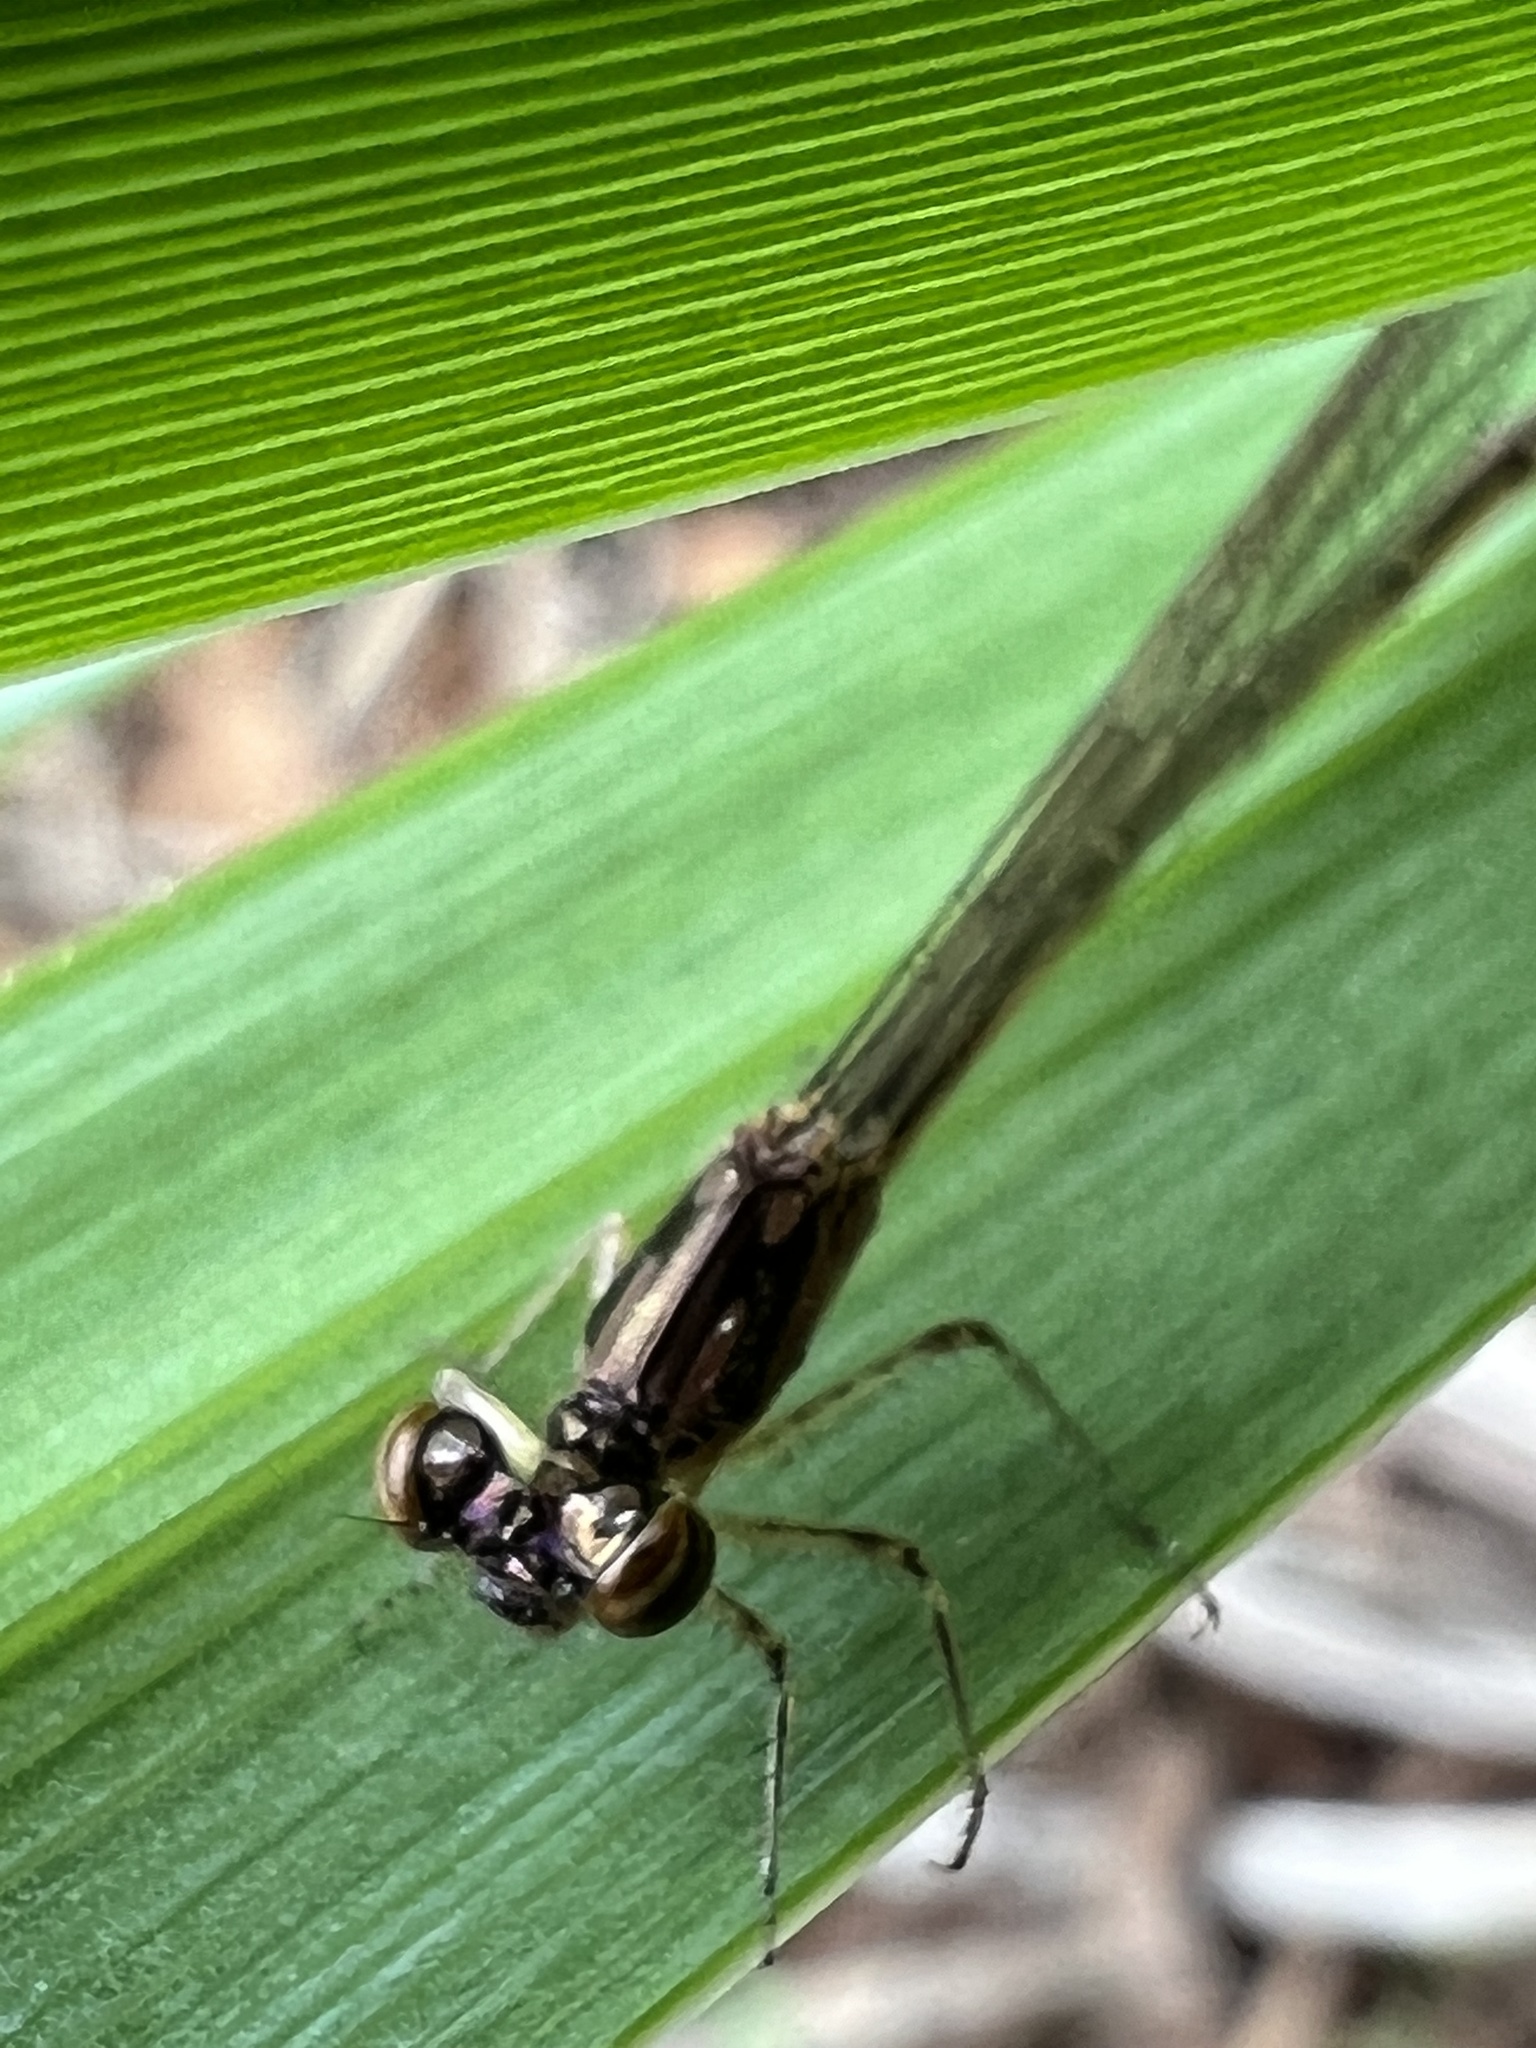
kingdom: Animalia
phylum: Arthropoda
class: Insecta
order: Odonata
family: Coenagrionidae
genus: Ischnura
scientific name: Ischnura posita
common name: Fragile forktail
